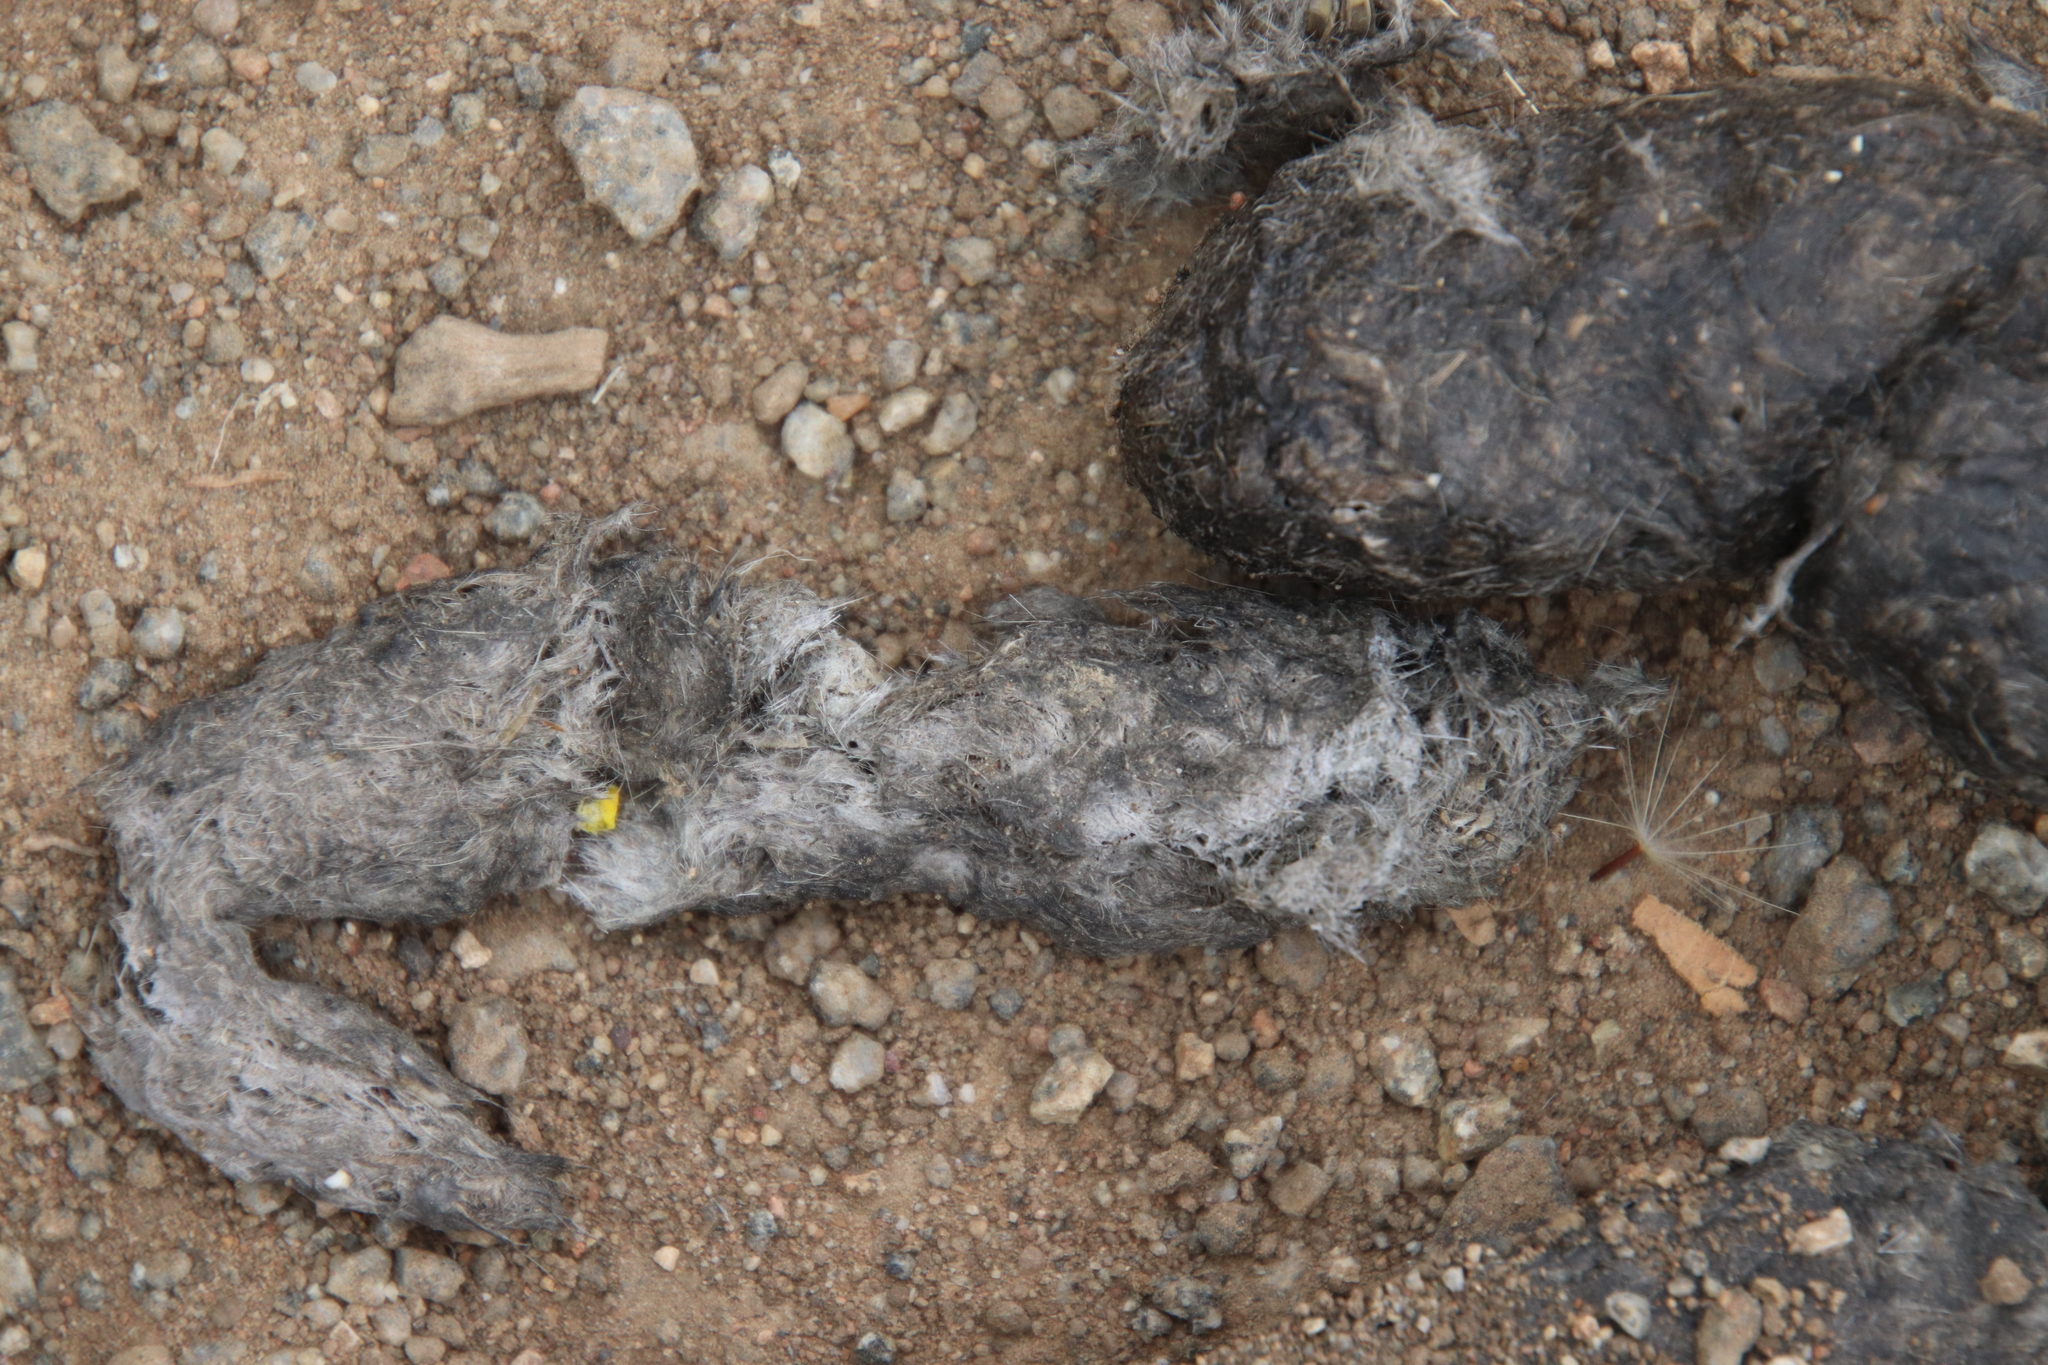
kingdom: Animalia
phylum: Chordata
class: Mammalia
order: Carnivora
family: Canidae
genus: Canis
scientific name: Canis latrans
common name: Coyote
